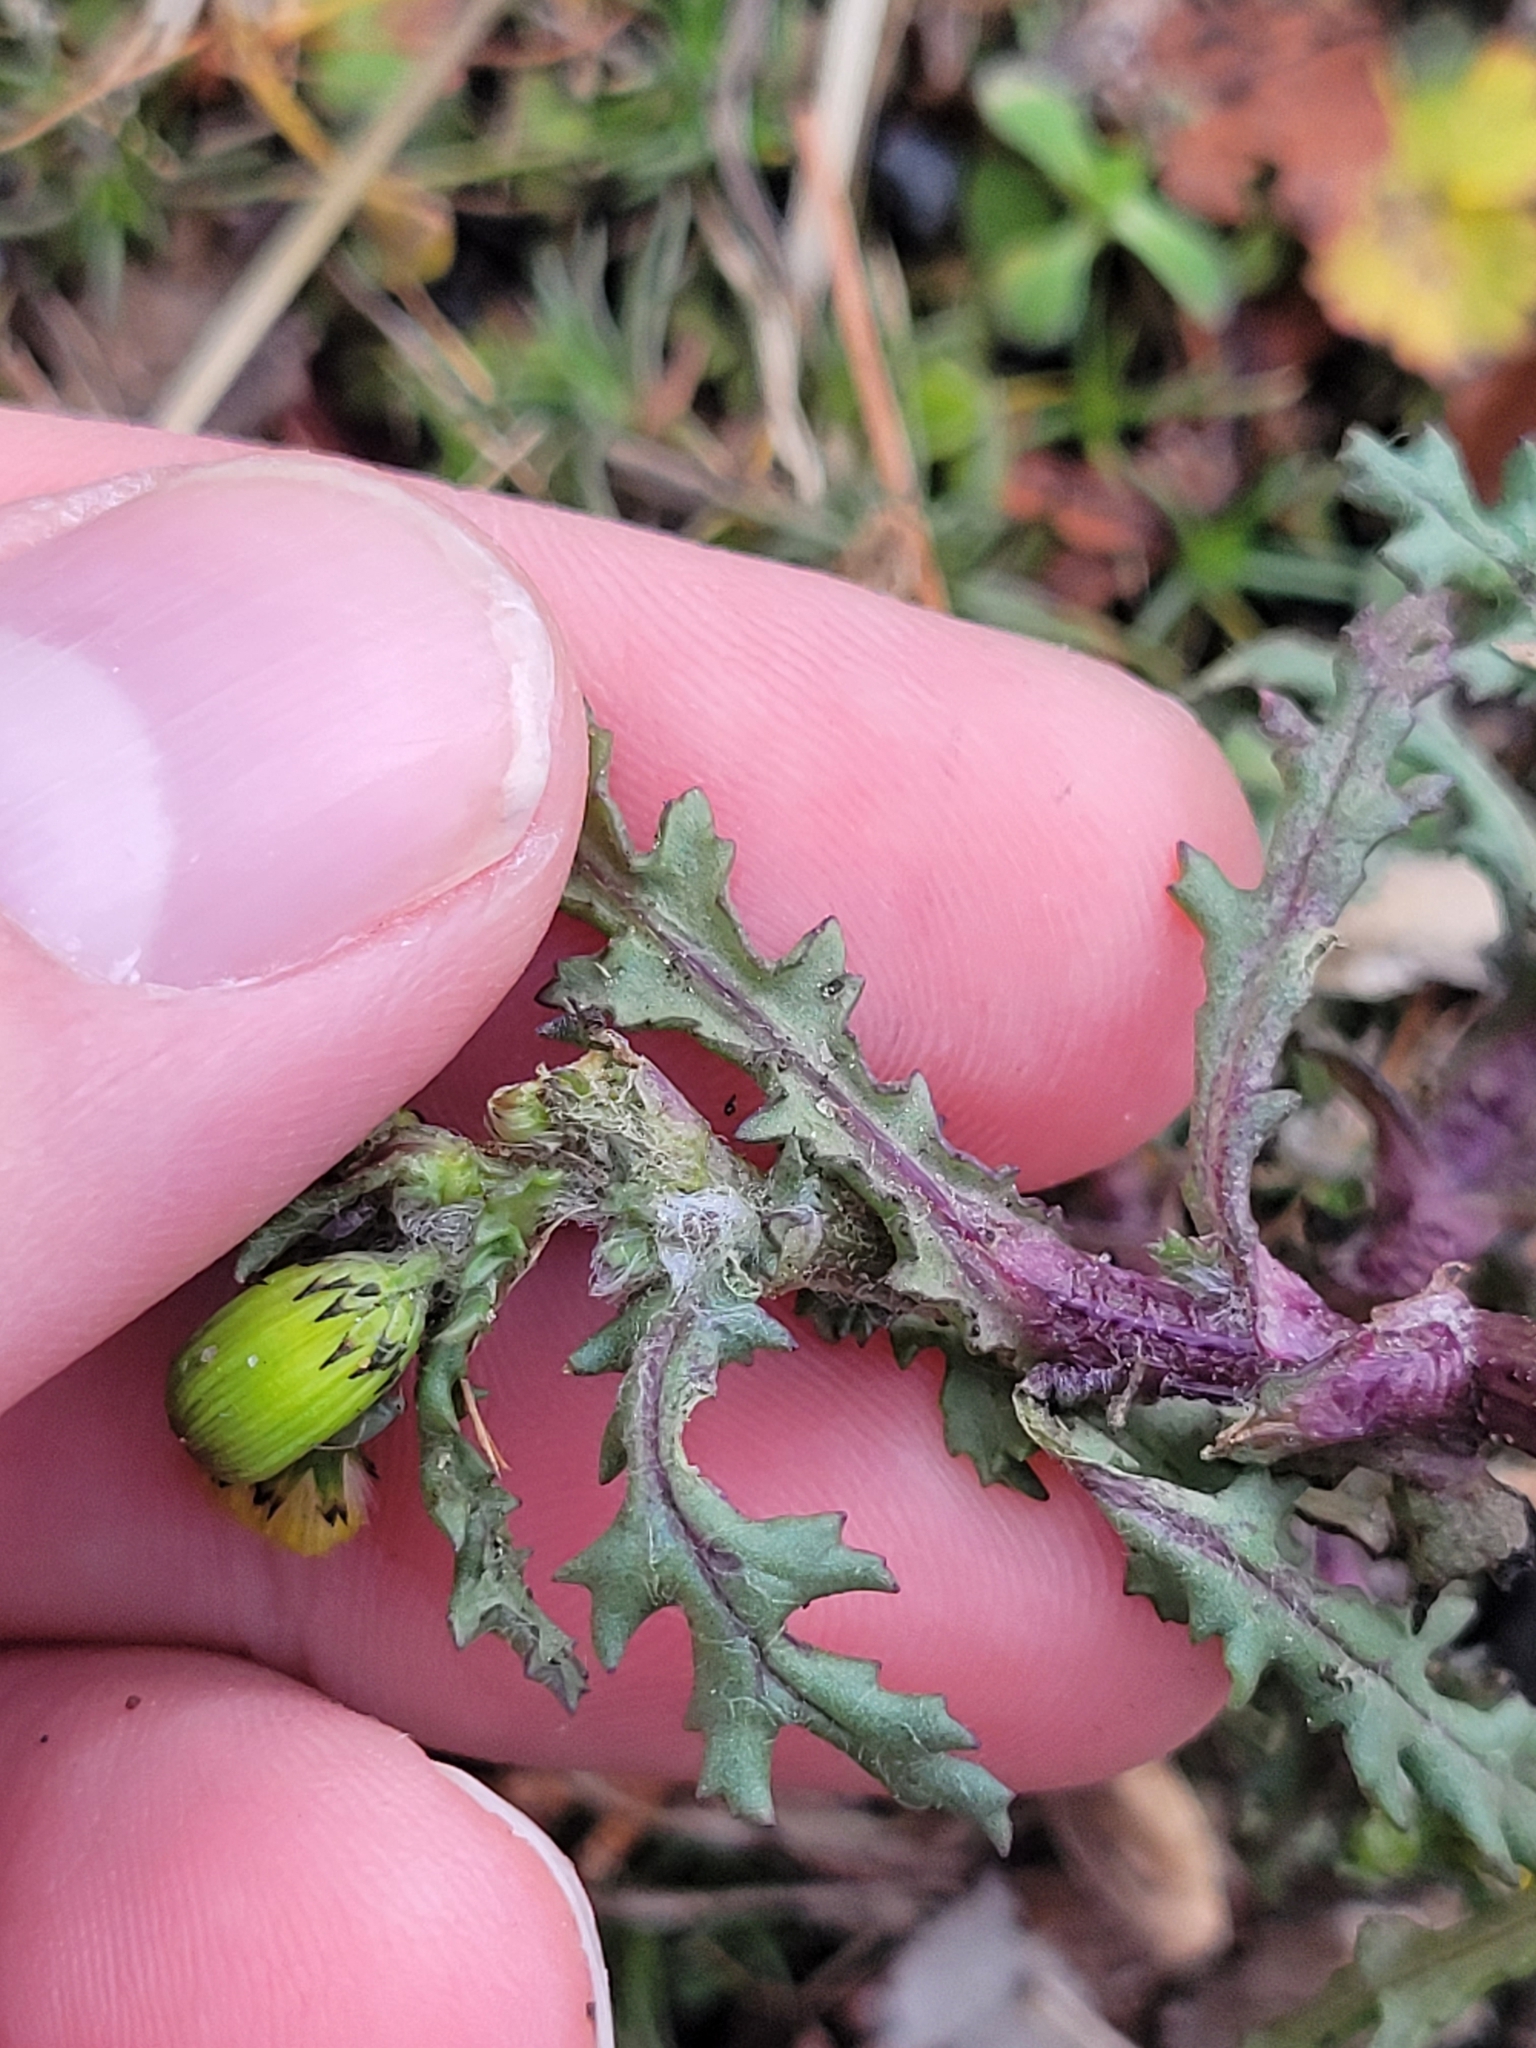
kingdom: Plantae
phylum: Tracheophyta
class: Magnoliopsida
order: Asterales
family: Asteraceae
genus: Senecio
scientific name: Senecio vulgaris
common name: Old-man-in-the-spring
